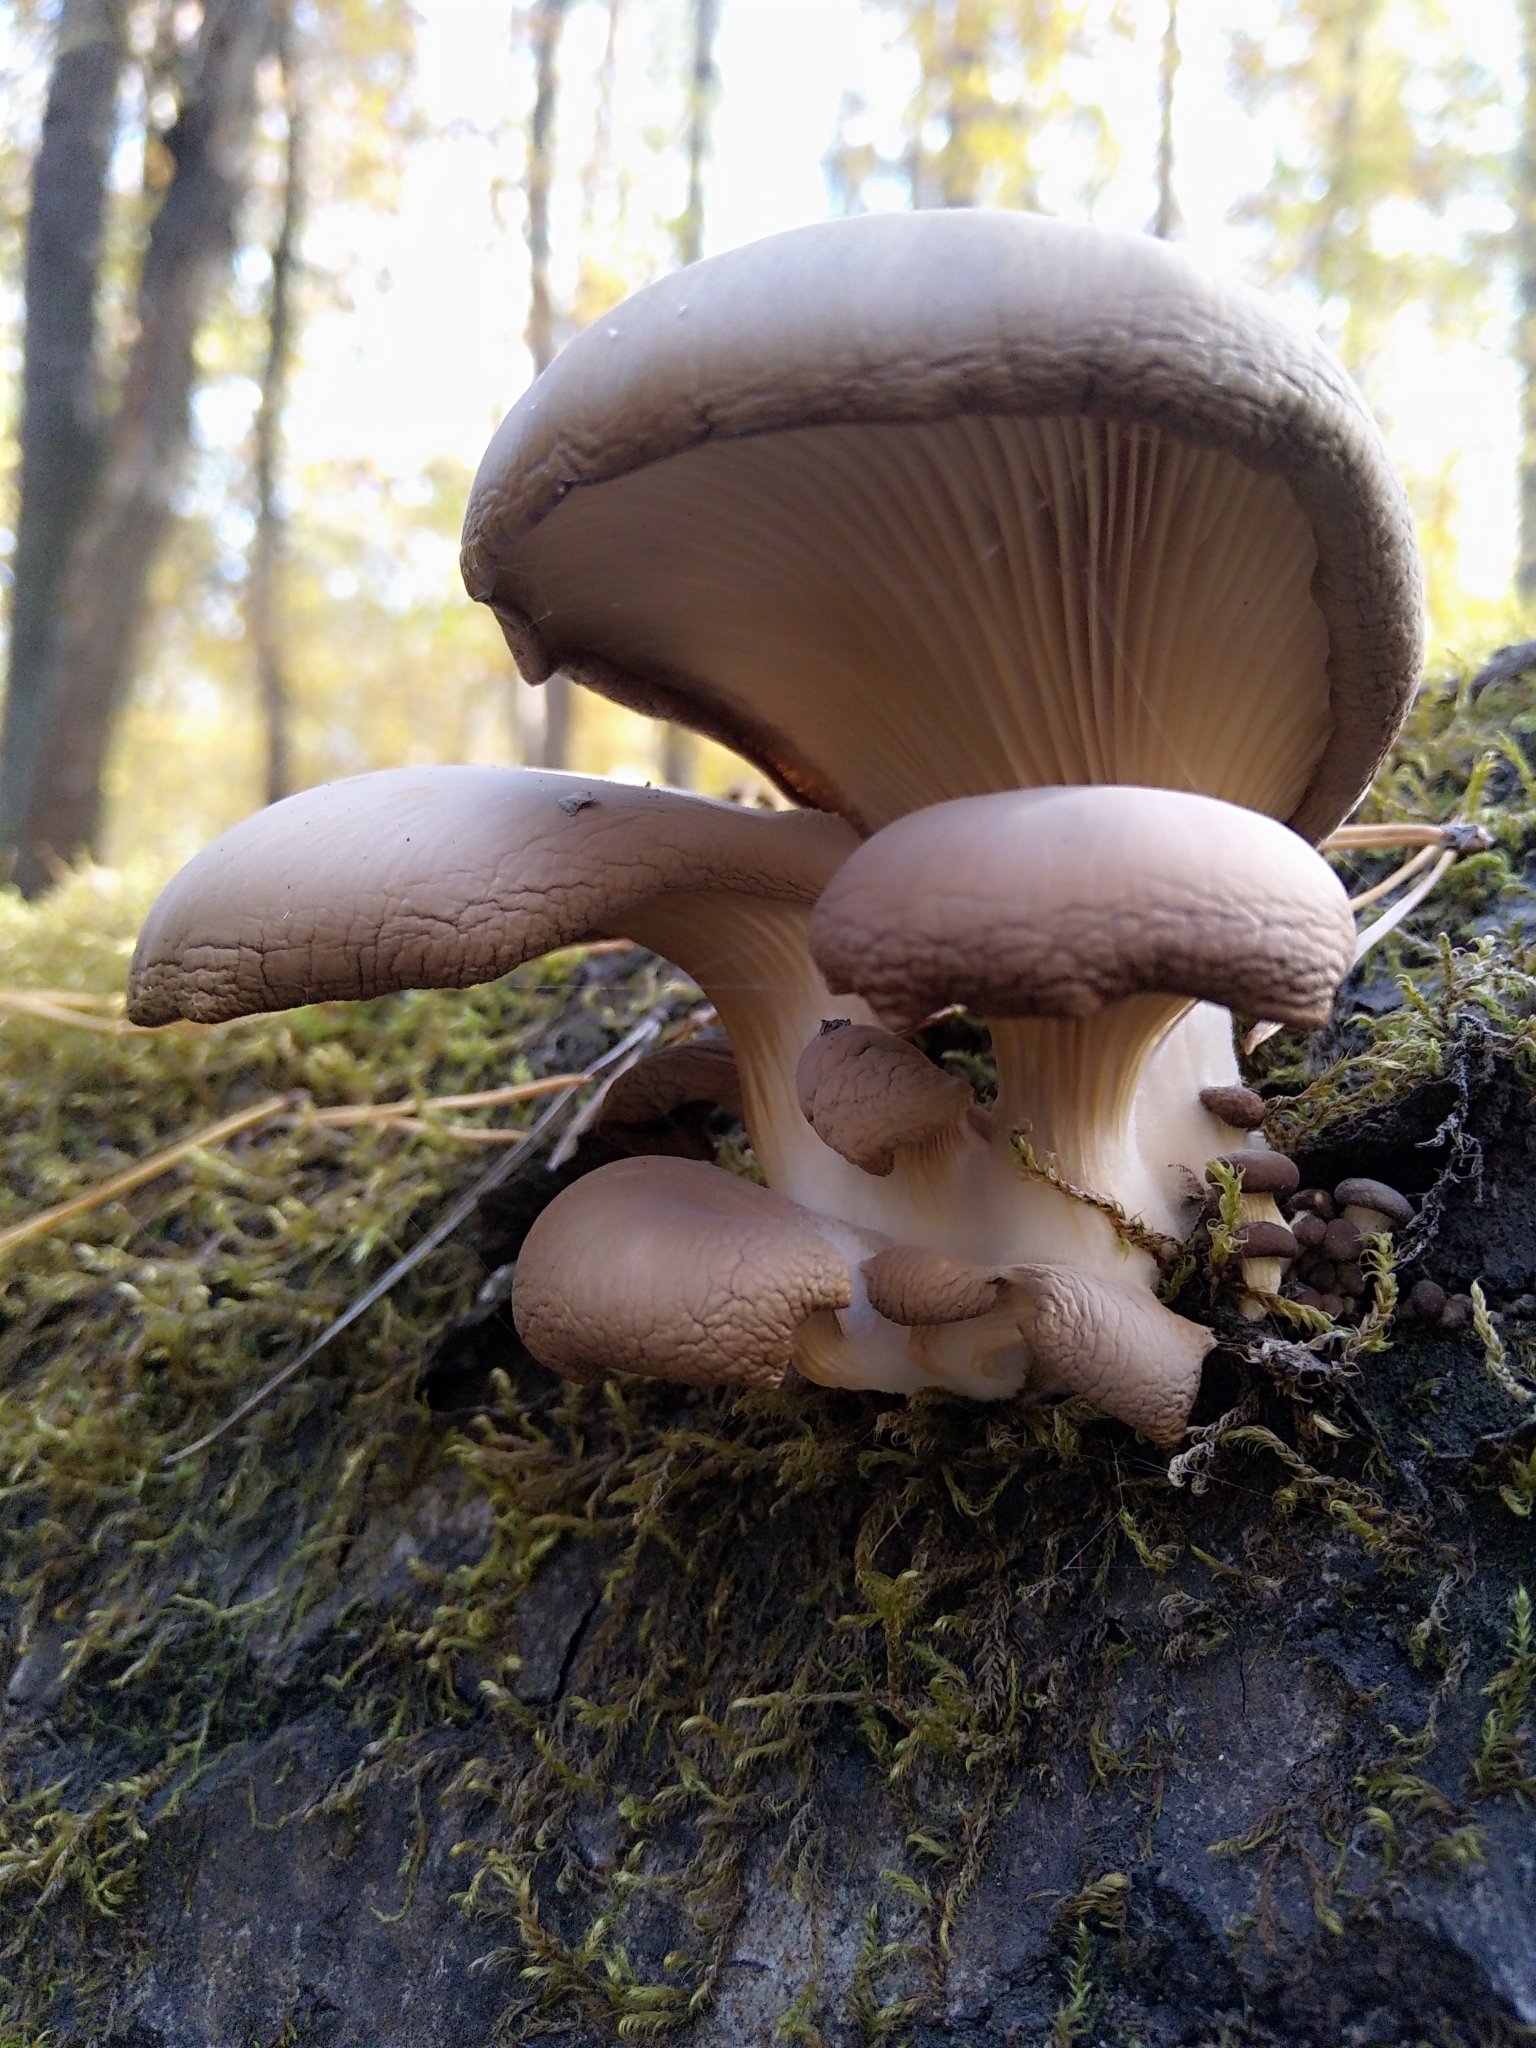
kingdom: Fungi
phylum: Basidiomycota
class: Agaricomycetes
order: Agaricales
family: Pleurotaceae
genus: Pleurotus
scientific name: Pleurotus ostreatus
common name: Oyster mushroom
